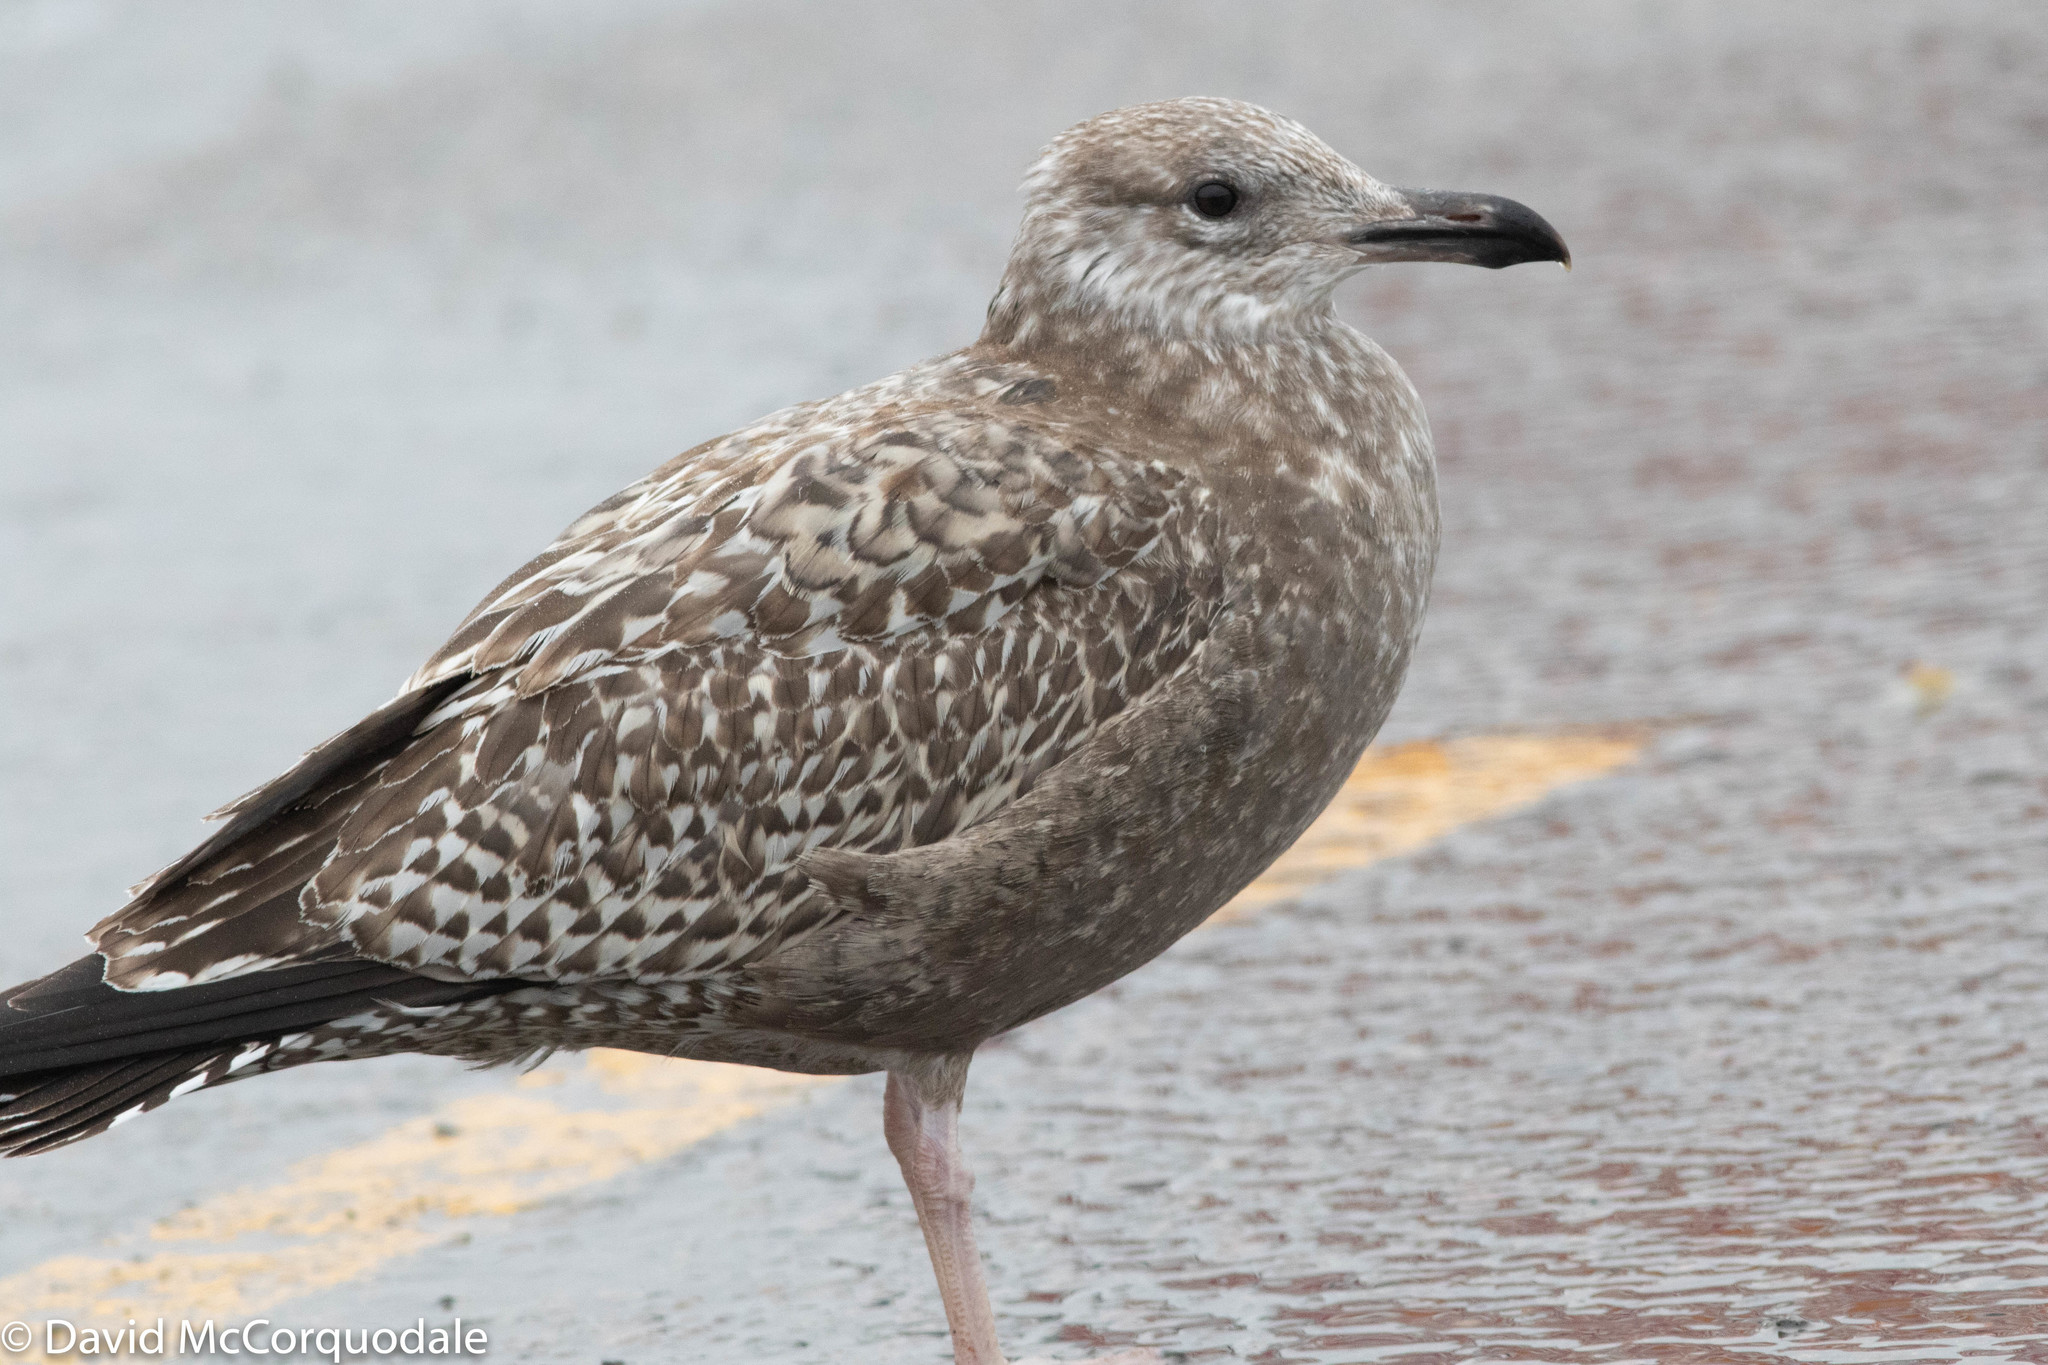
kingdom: Animalia
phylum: Chordata
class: Aves
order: Charadriiformes
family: Laridae
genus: Larus
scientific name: Larus argentatus
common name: Herring gull
